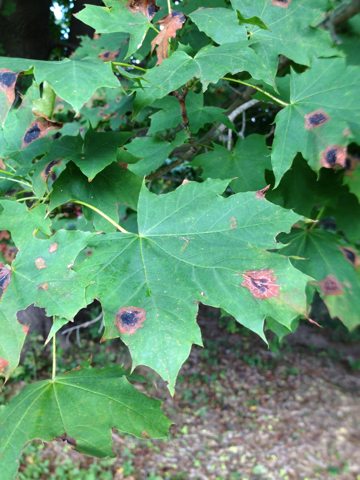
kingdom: Plantae
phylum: Tracheophyta
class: Magnoliopsida
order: Sapindales
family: Sapindaceae
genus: Acer
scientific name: Acer saccharum
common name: Sugar maple
